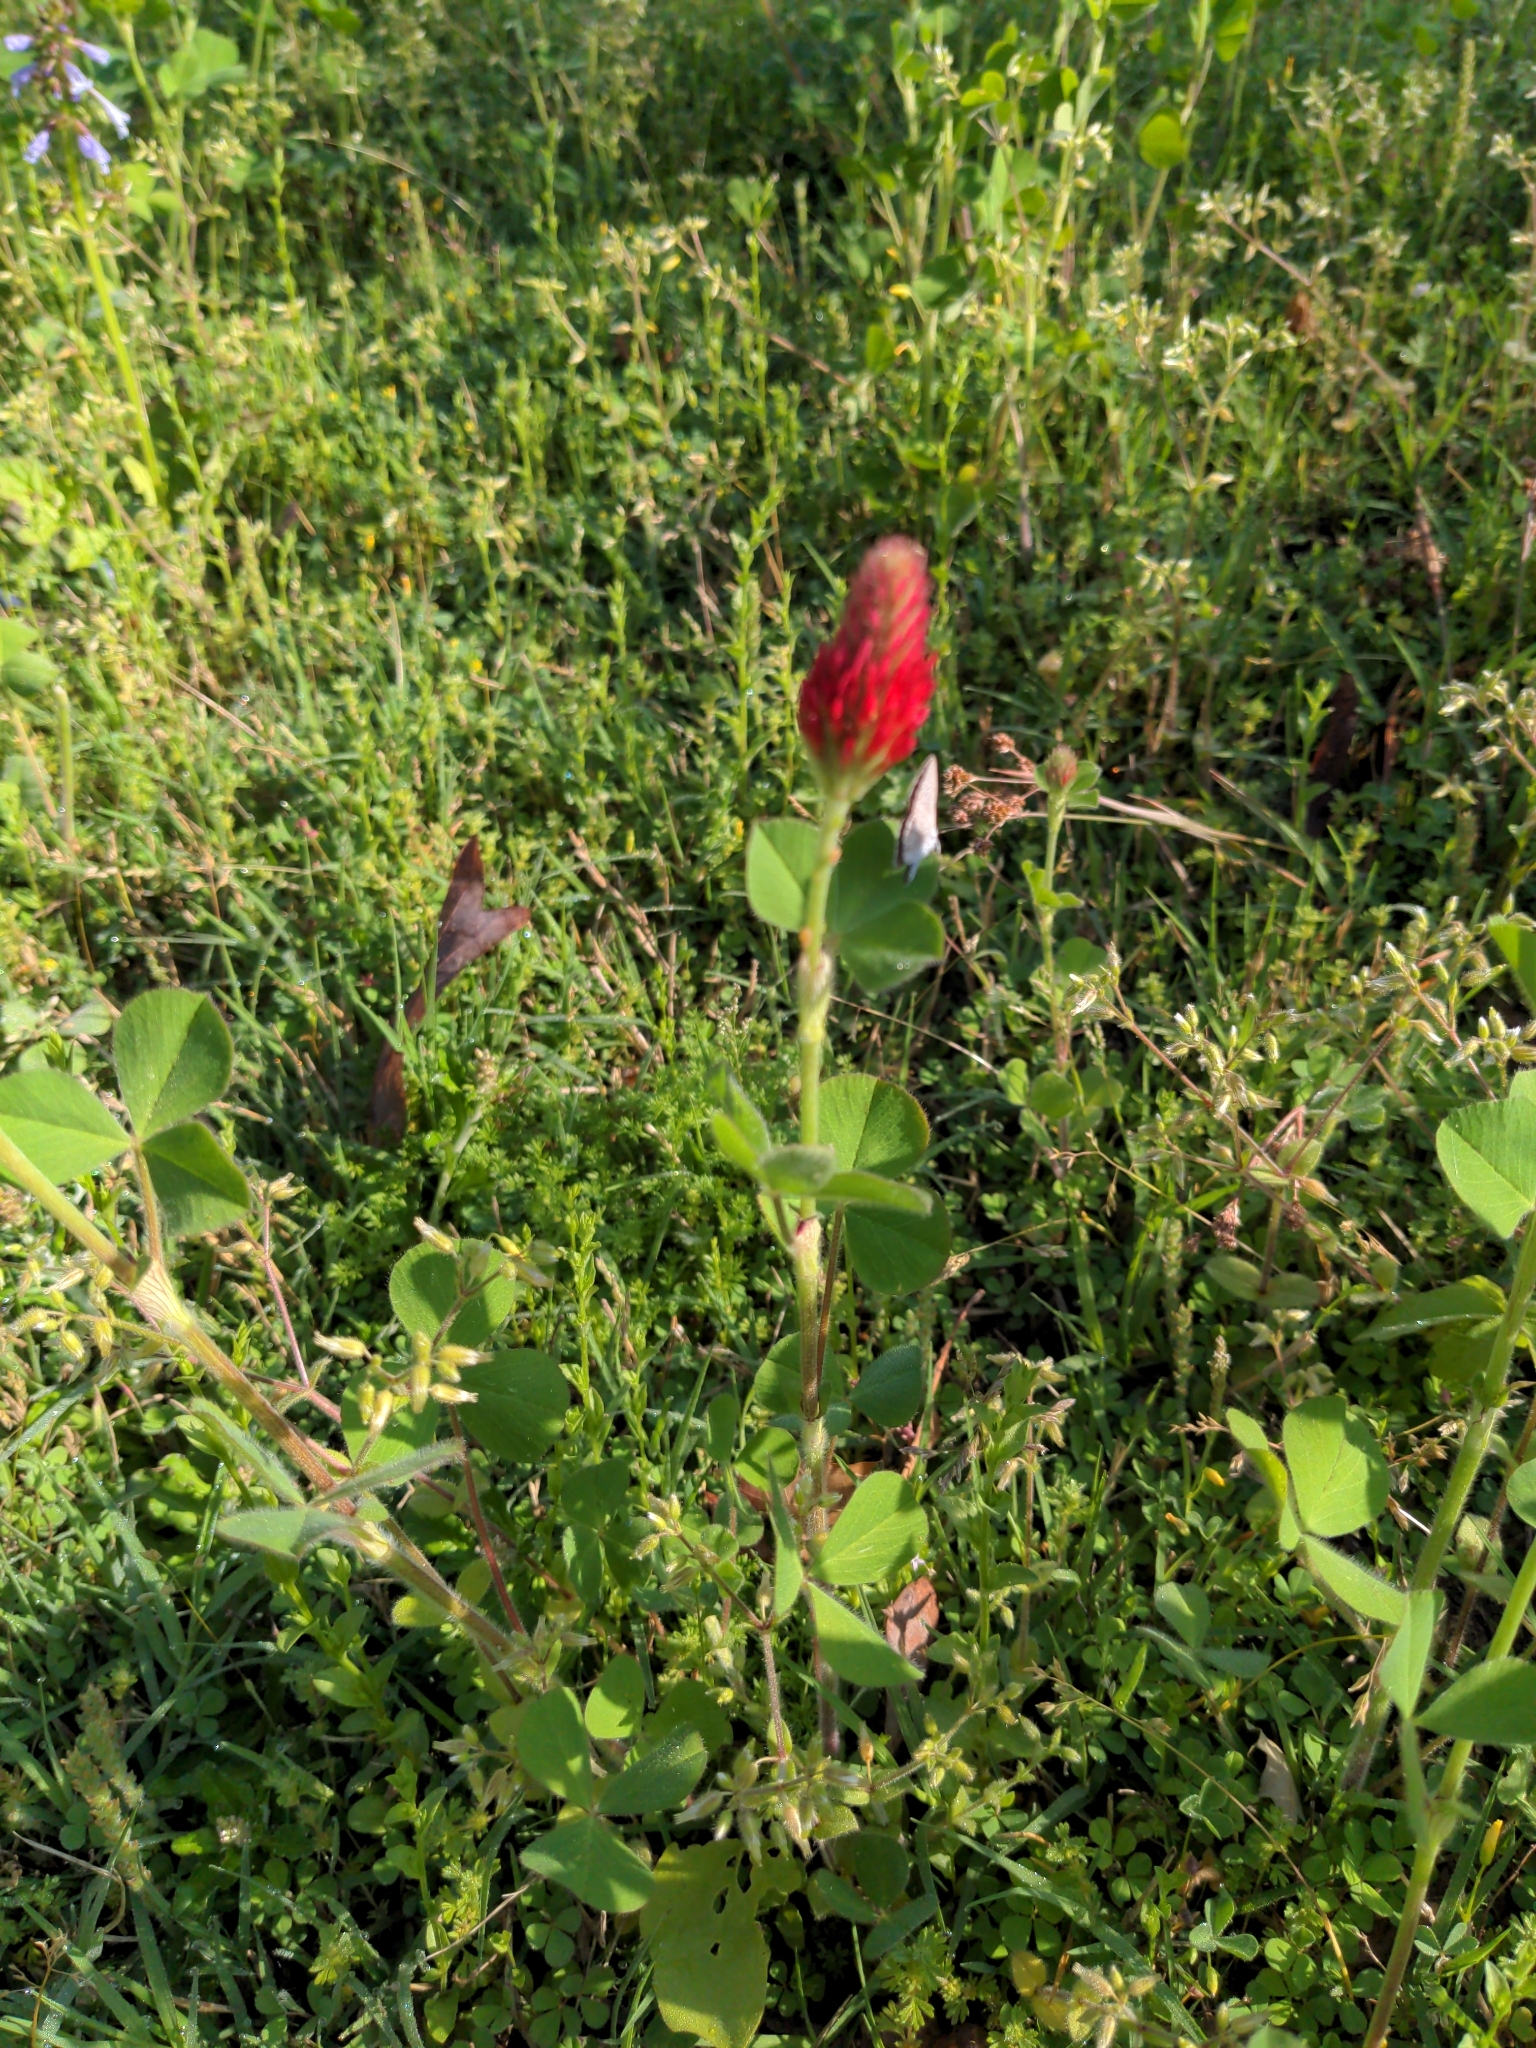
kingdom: Plantae
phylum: Tracheophyta
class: Magnoliopsida
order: Fabales
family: Fabaceae
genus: Trifolium
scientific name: Trifolium incarnatum
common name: Crimson clover
